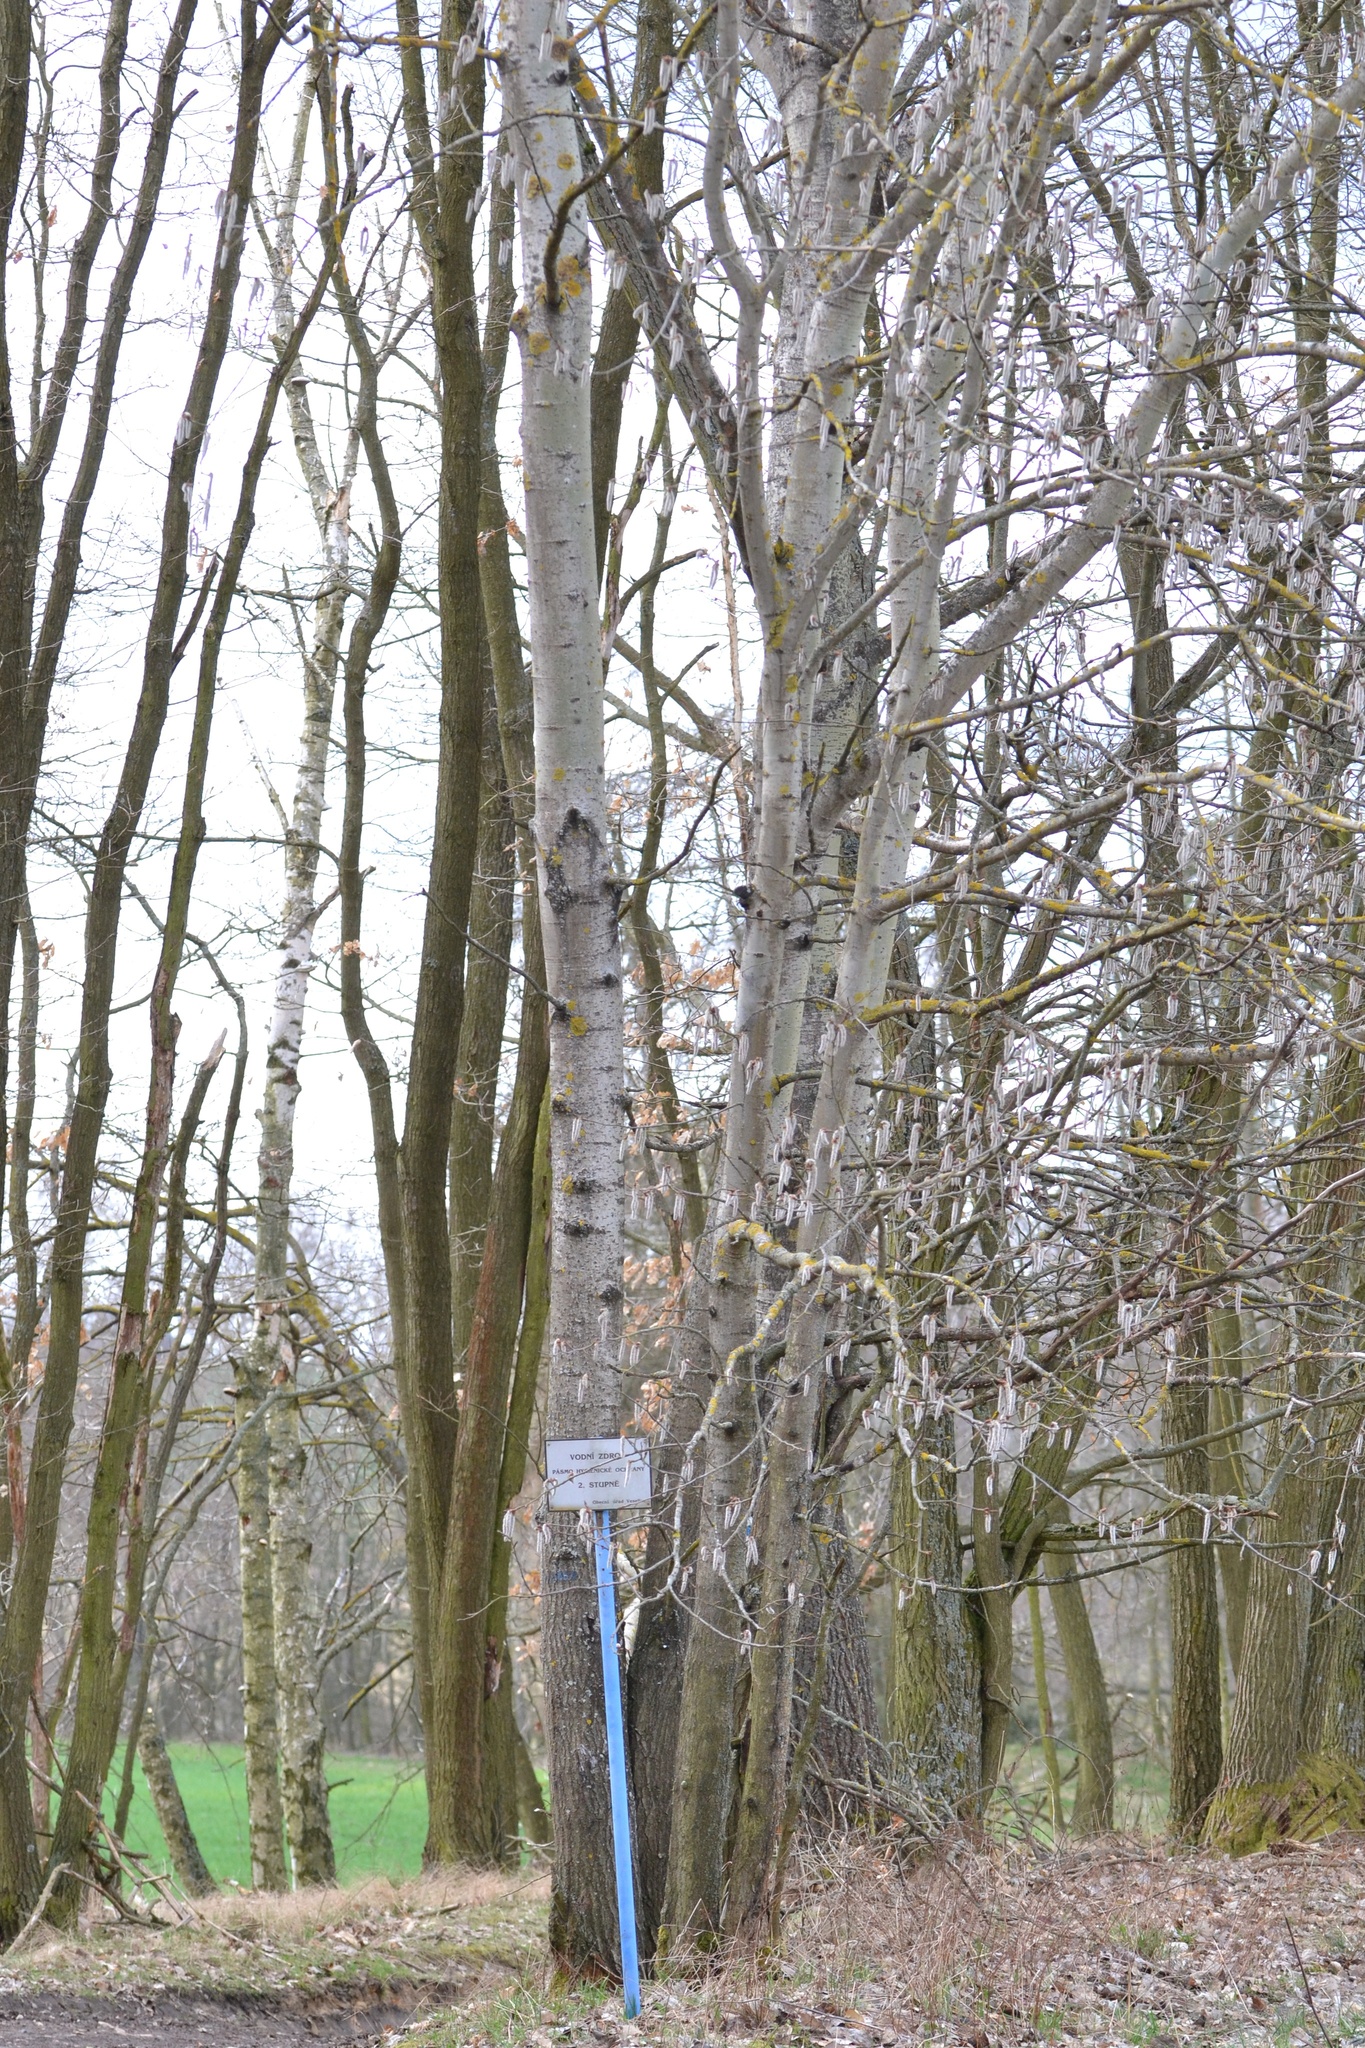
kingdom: Plantae
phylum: Tracheophyta
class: Magnoliopsida
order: Malpighiales
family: Salicaceae
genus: Populus
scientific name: Populus tremula
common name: European aspen
